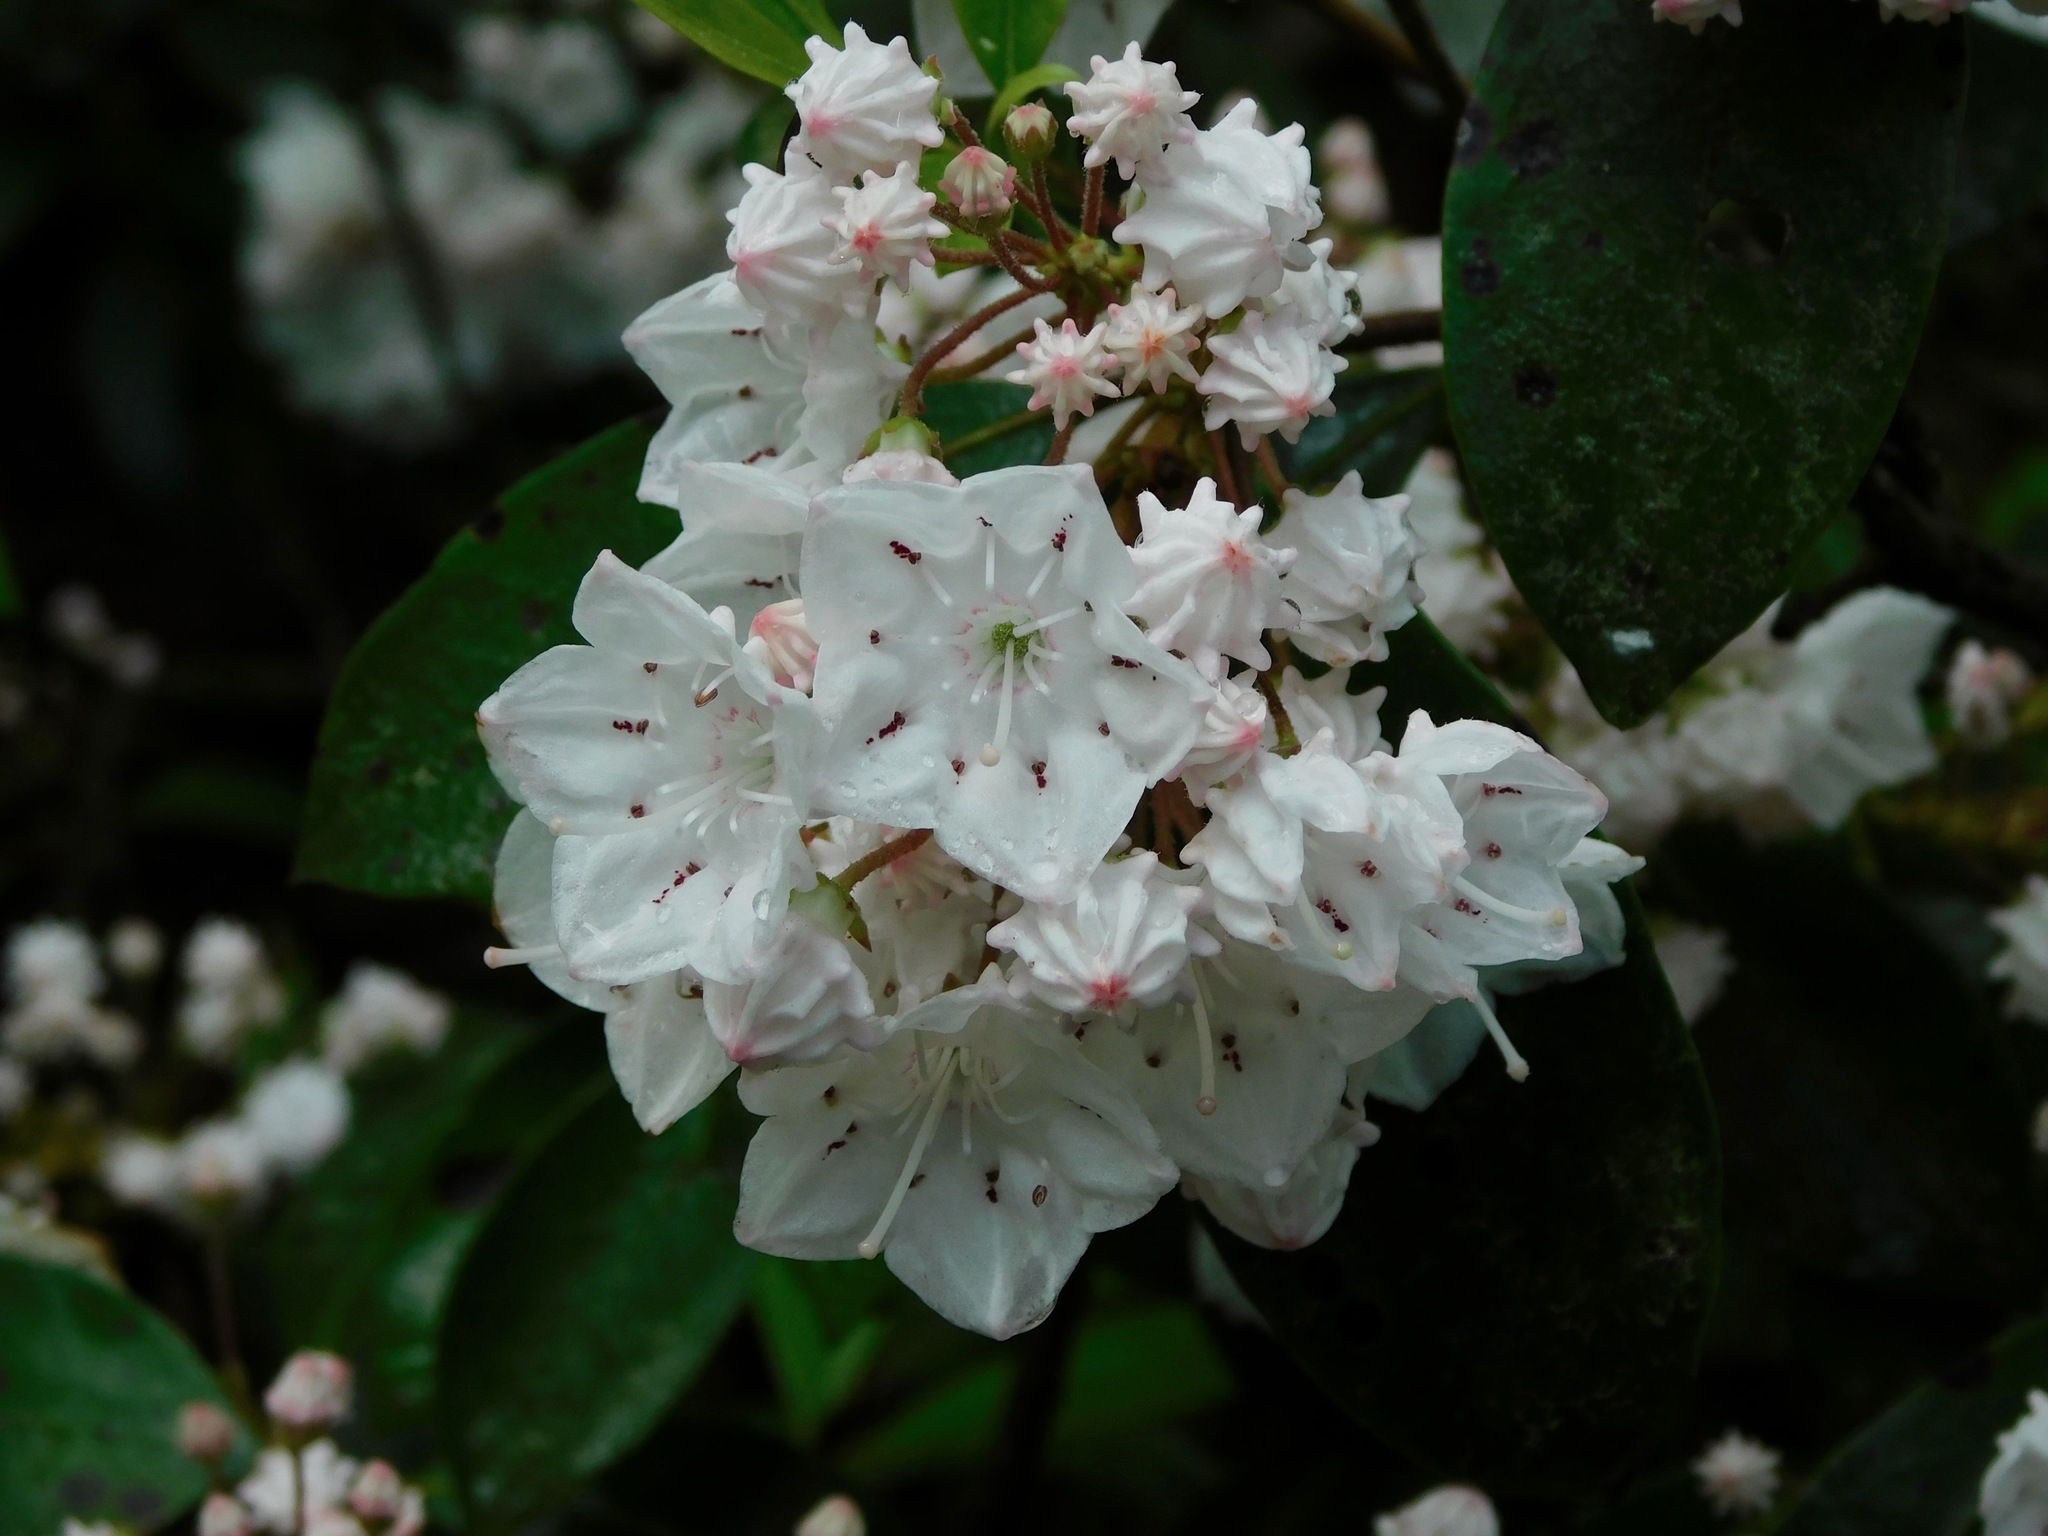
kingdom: Plantae
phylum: Tracheophyta
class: Magnoliopsida
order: Ericales
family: Ericaceae
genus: Kalmia
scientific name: Kalmia latifolia
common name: Mountain-laurel
